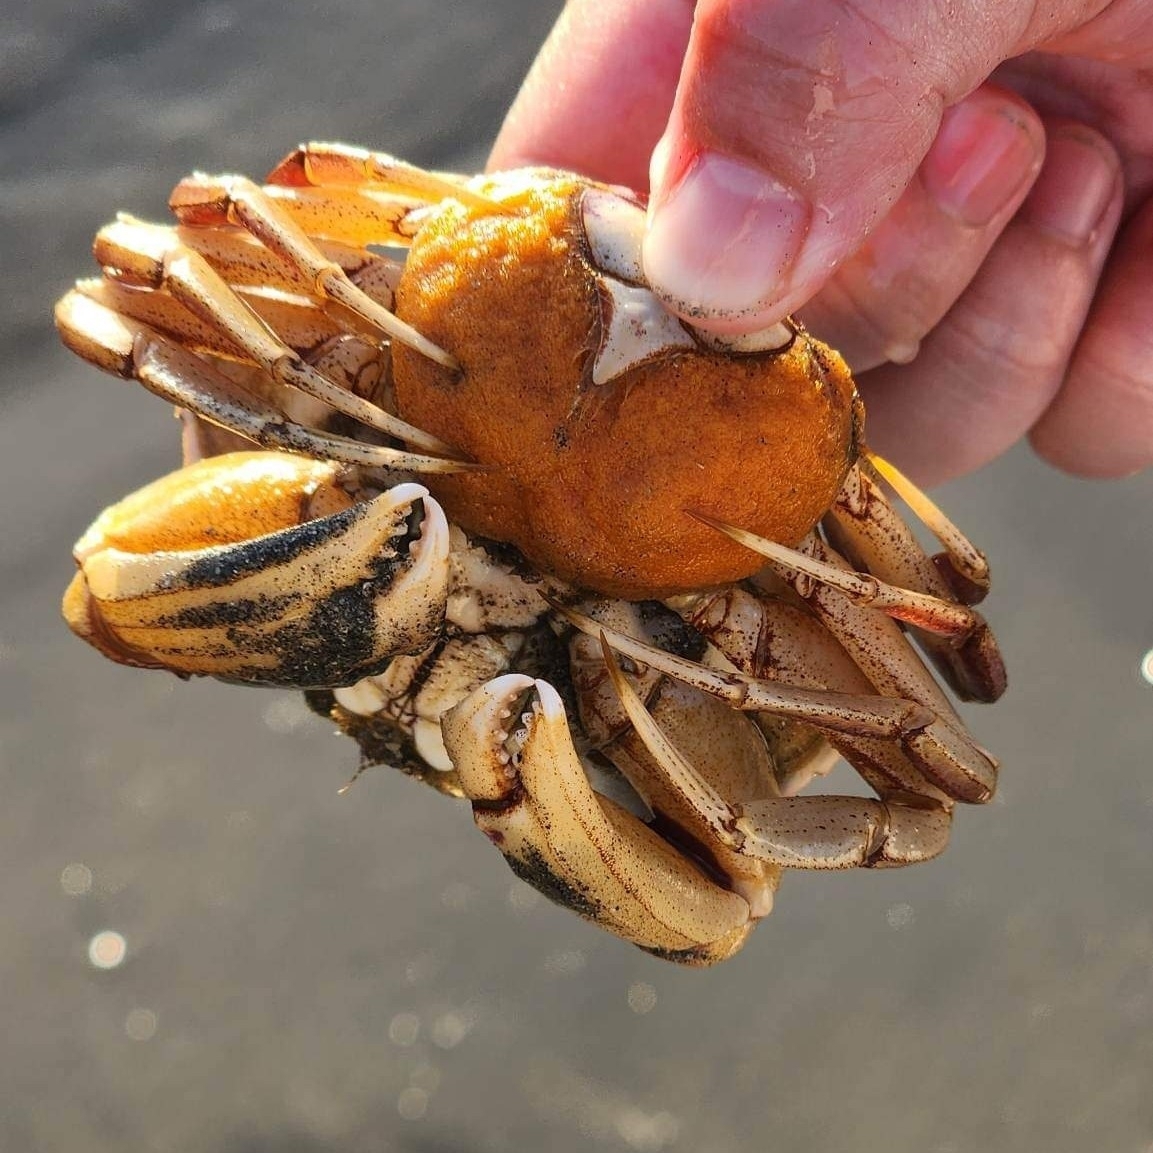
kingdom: Animalia
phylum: Arthropoda
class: Malacostraca
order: Decapoda
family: Cancridae
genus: Metacarcinus
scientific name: Metacarcinus gracilis
